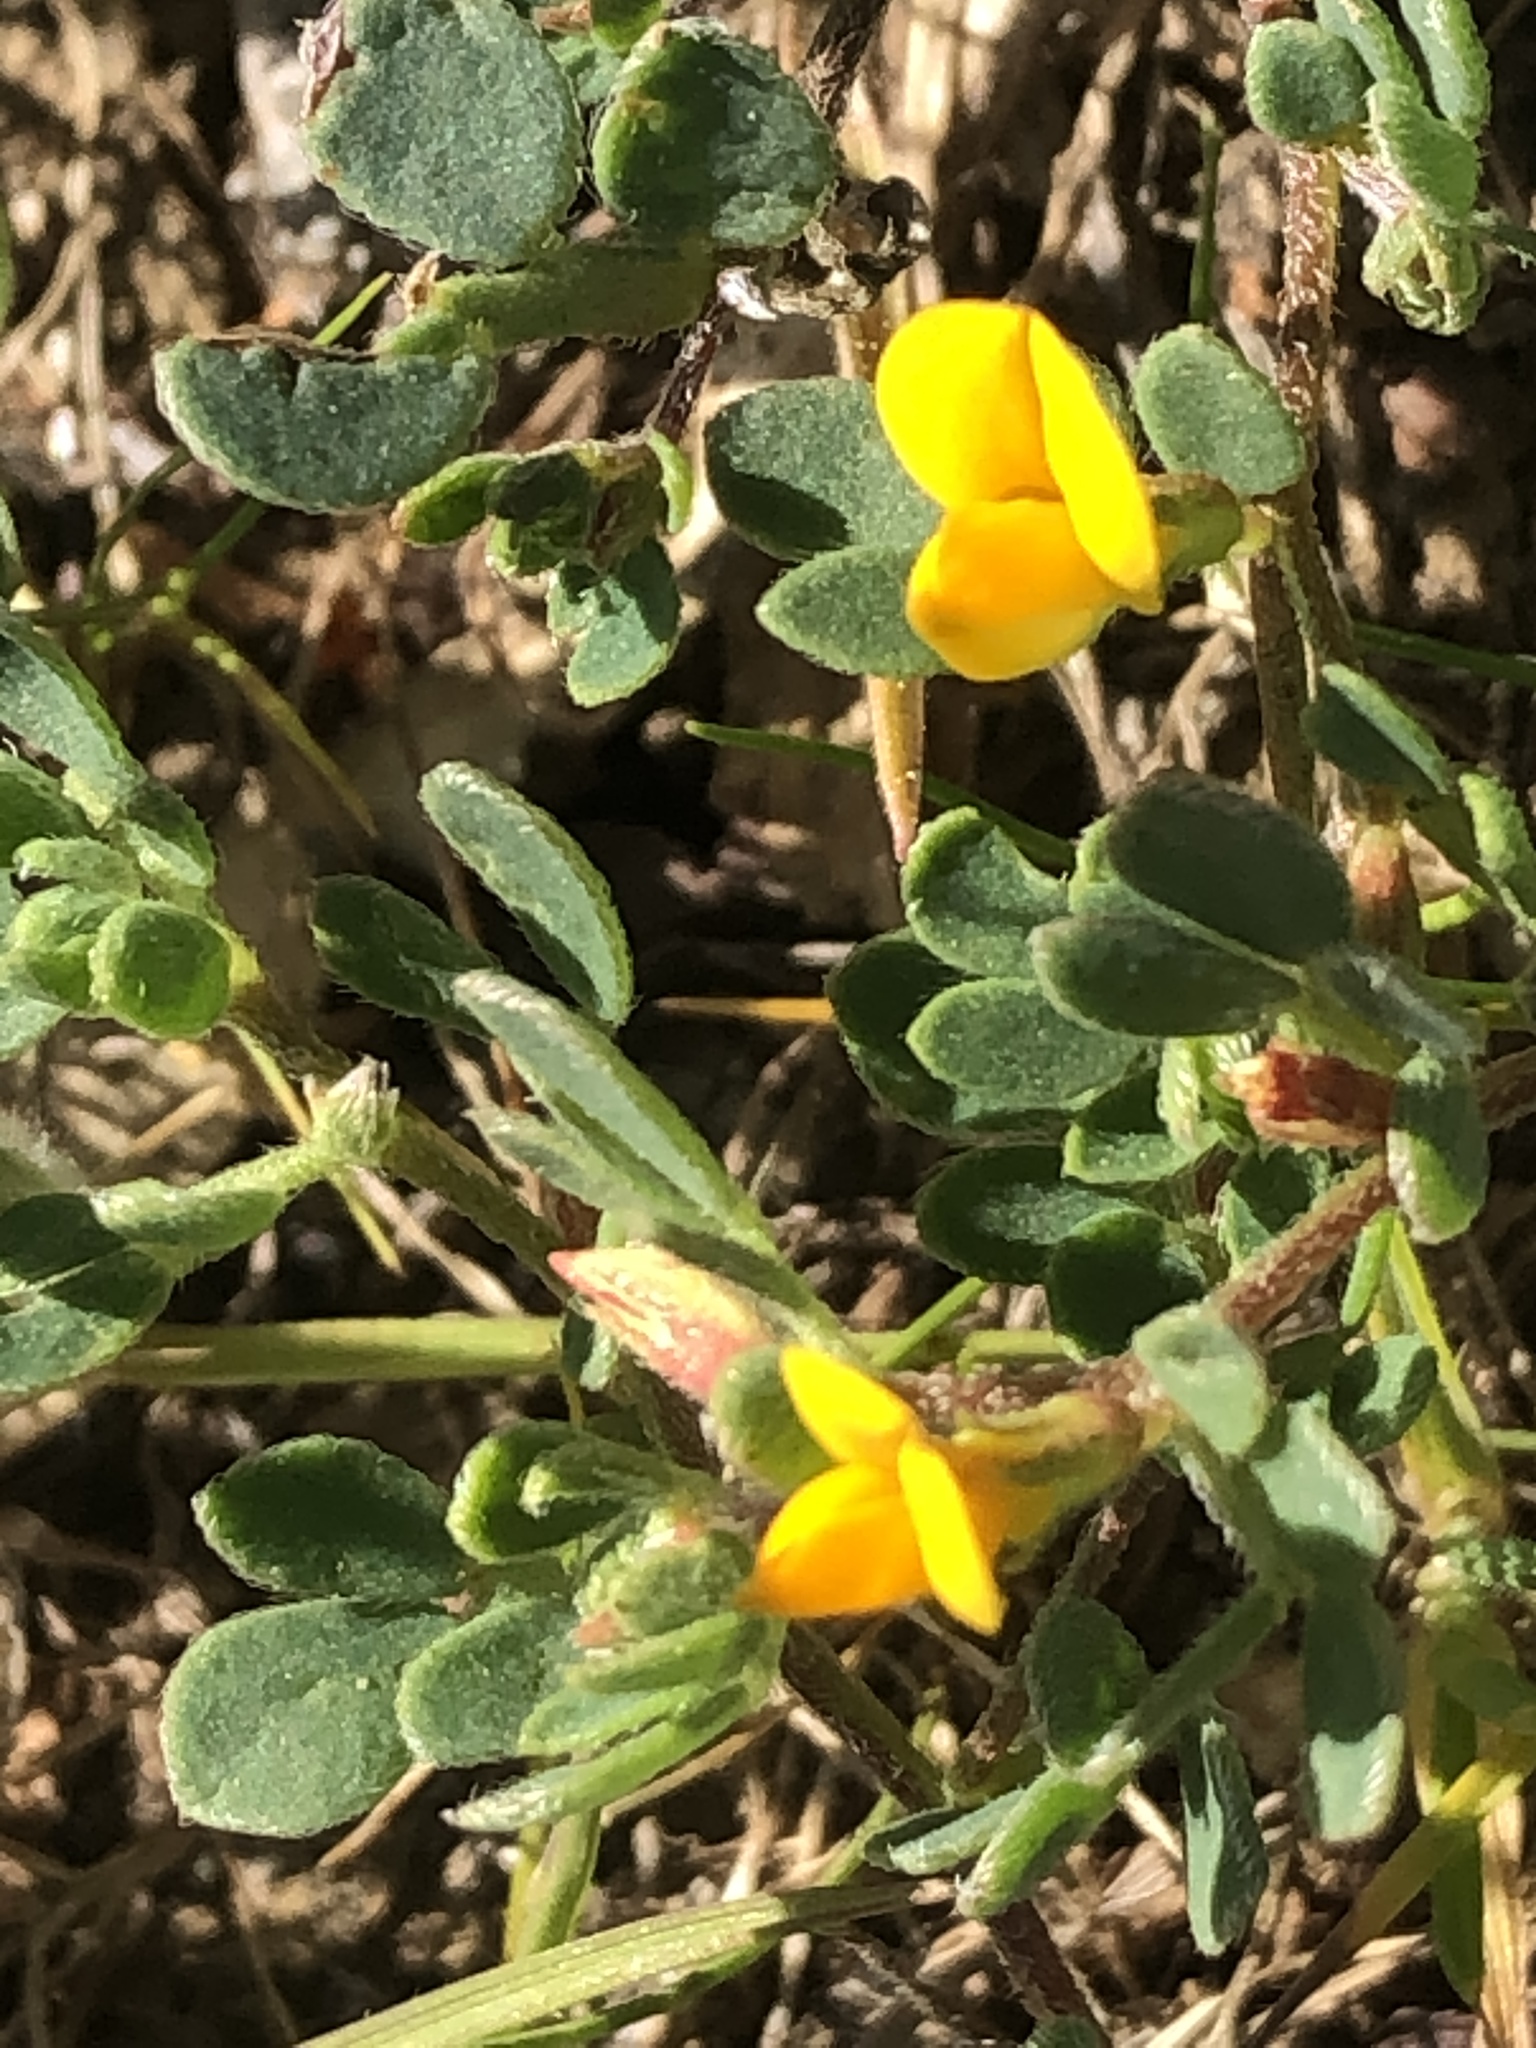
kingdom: Plantae
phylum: Tracheophyta
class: Magnoliopsida
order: Fabales
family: Fabaceae
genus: Acmispon
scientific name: Acmispon wrangelianus
